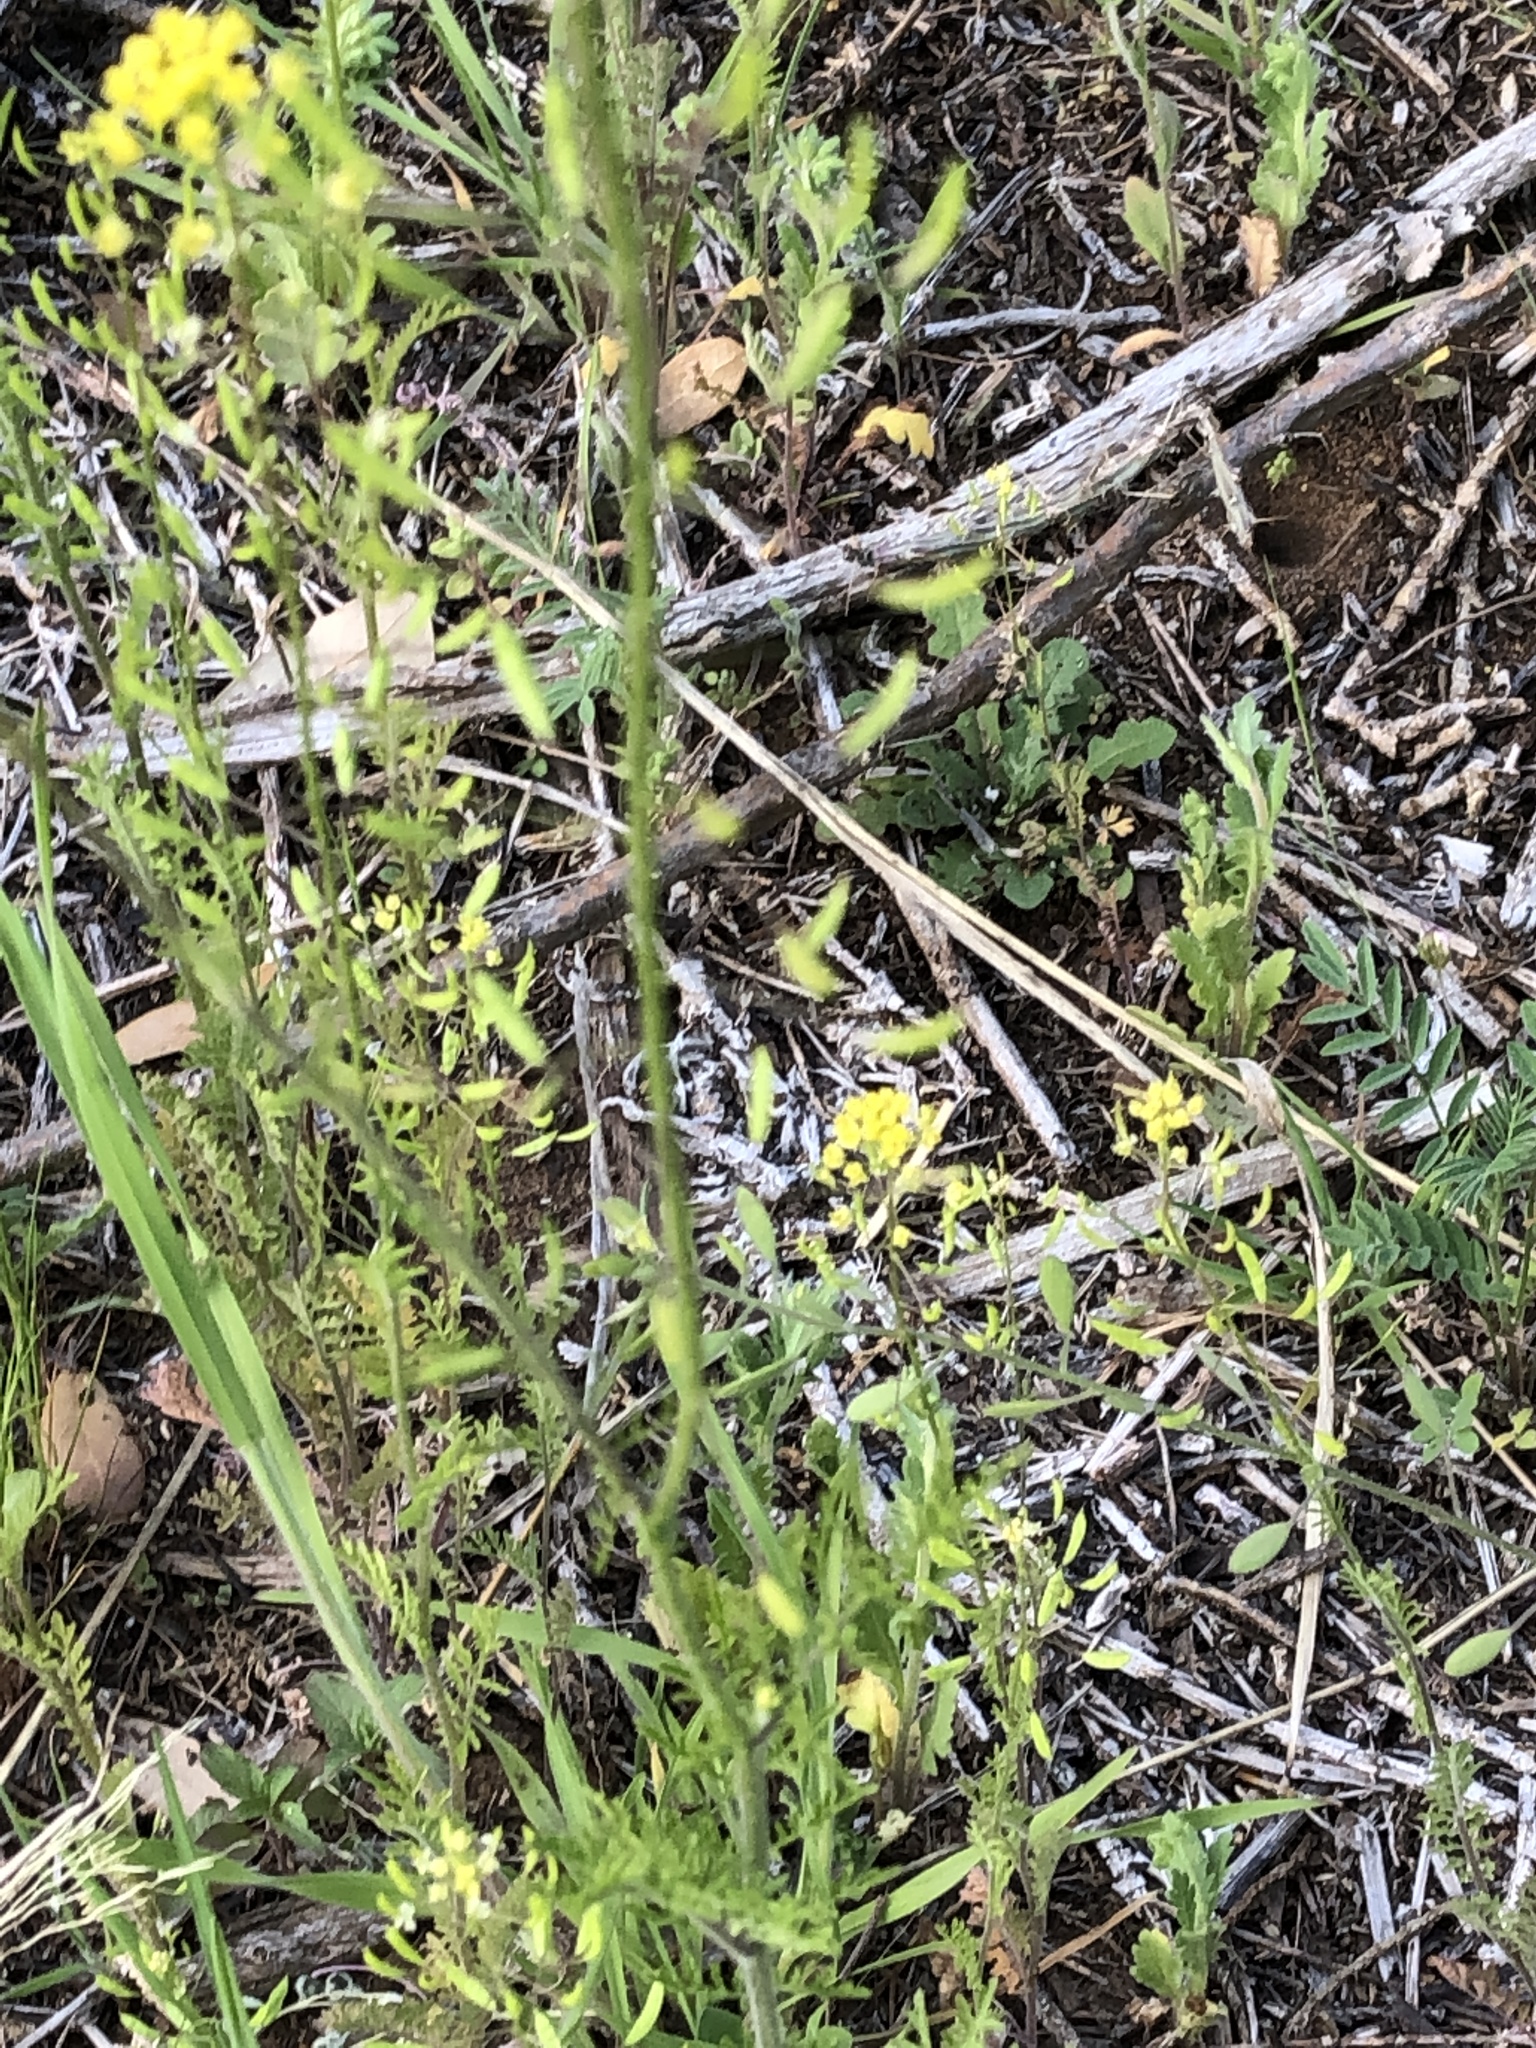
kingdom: Plantae
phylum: Tracheophyta
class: Magnoliopsida
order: Brassicales
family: Brassicaceae
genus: Descurainia
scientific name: Descurainia pinnata
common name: Western tansy mustard
